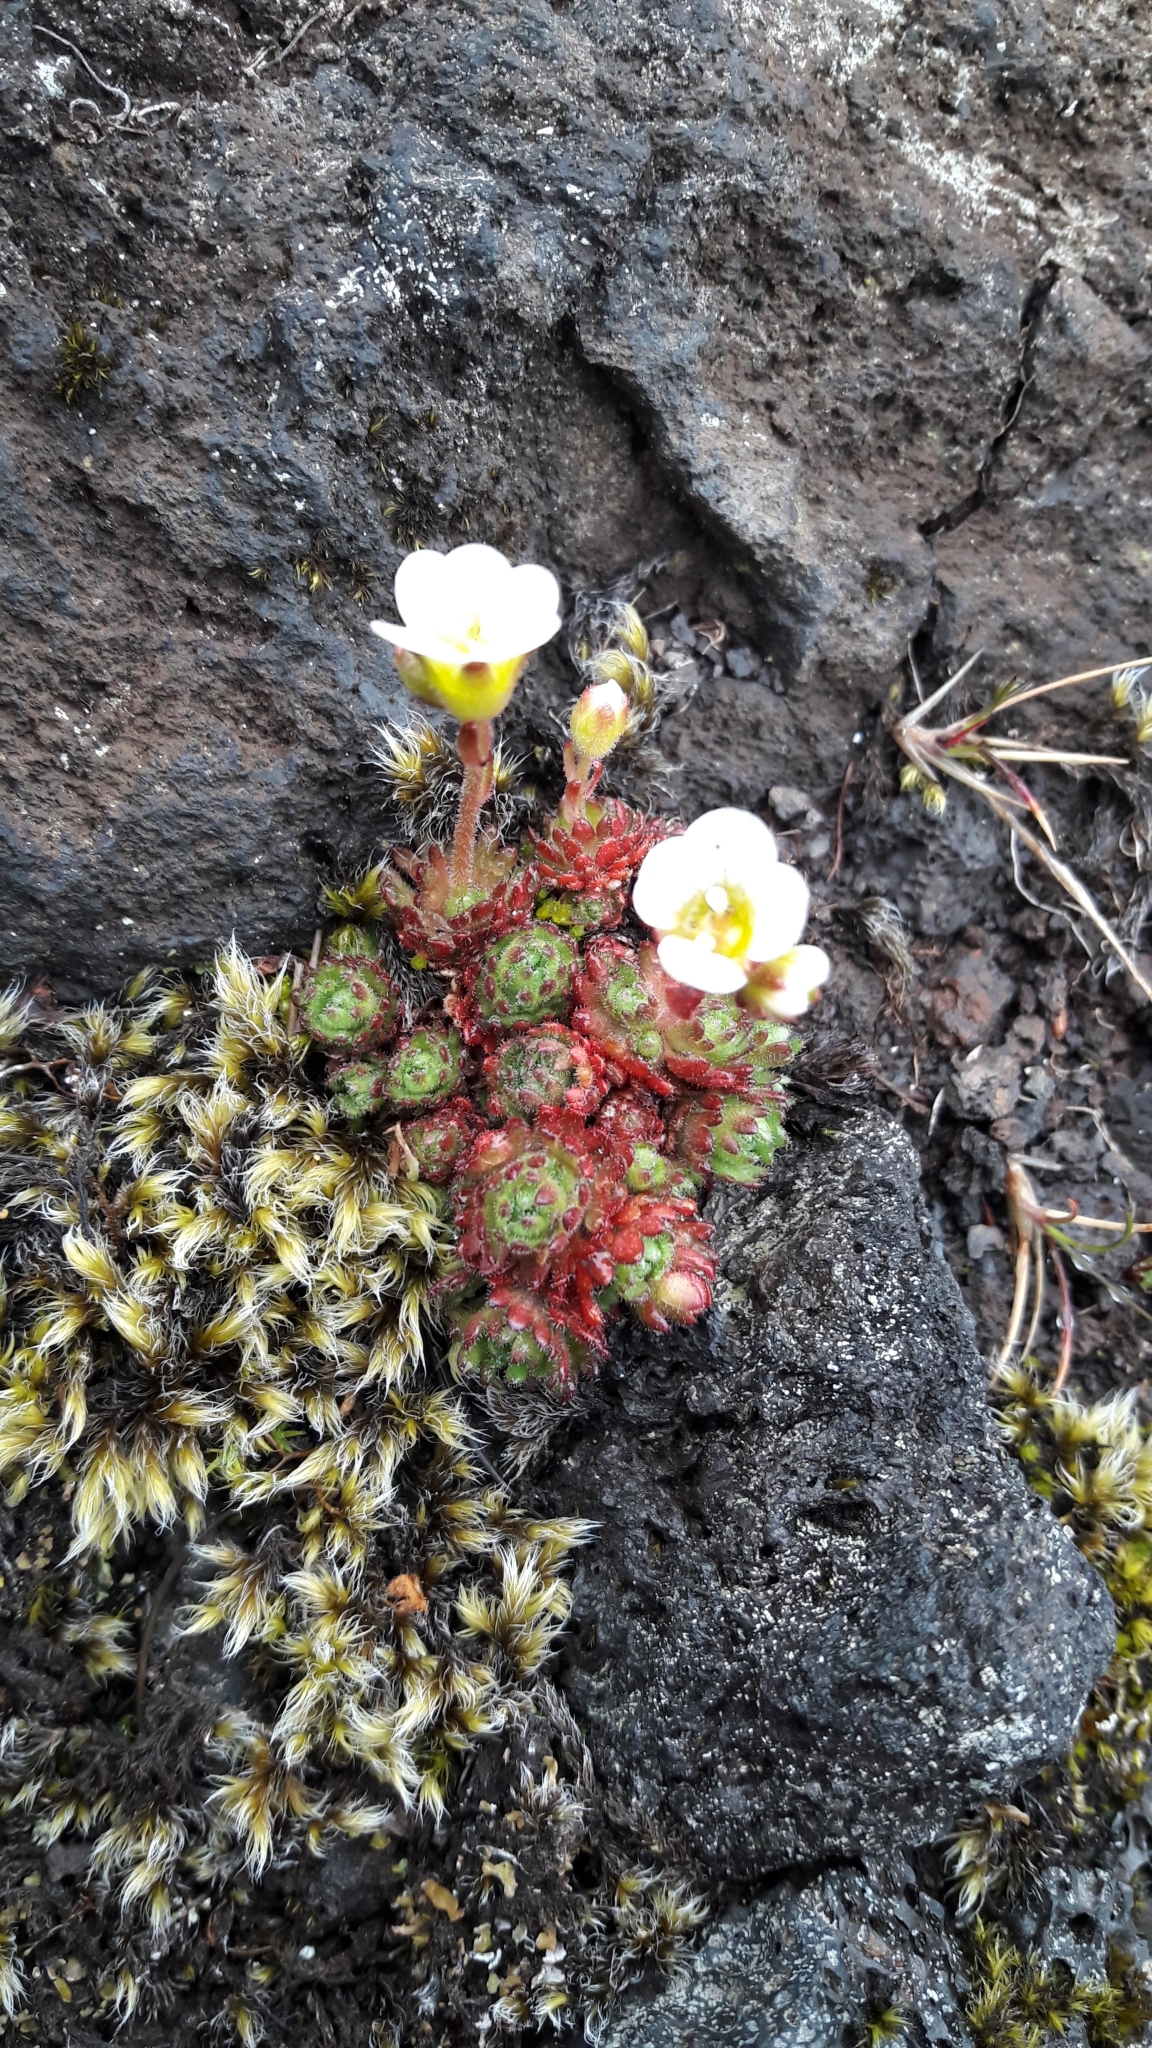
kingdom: Plantae
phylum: Tracheophyta
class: Magnoliopsida
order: Saxifragales
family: Saxifragaceae
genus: Saxifraga
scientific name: Saxifraga cespitosa
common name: Tufted saxifrage
